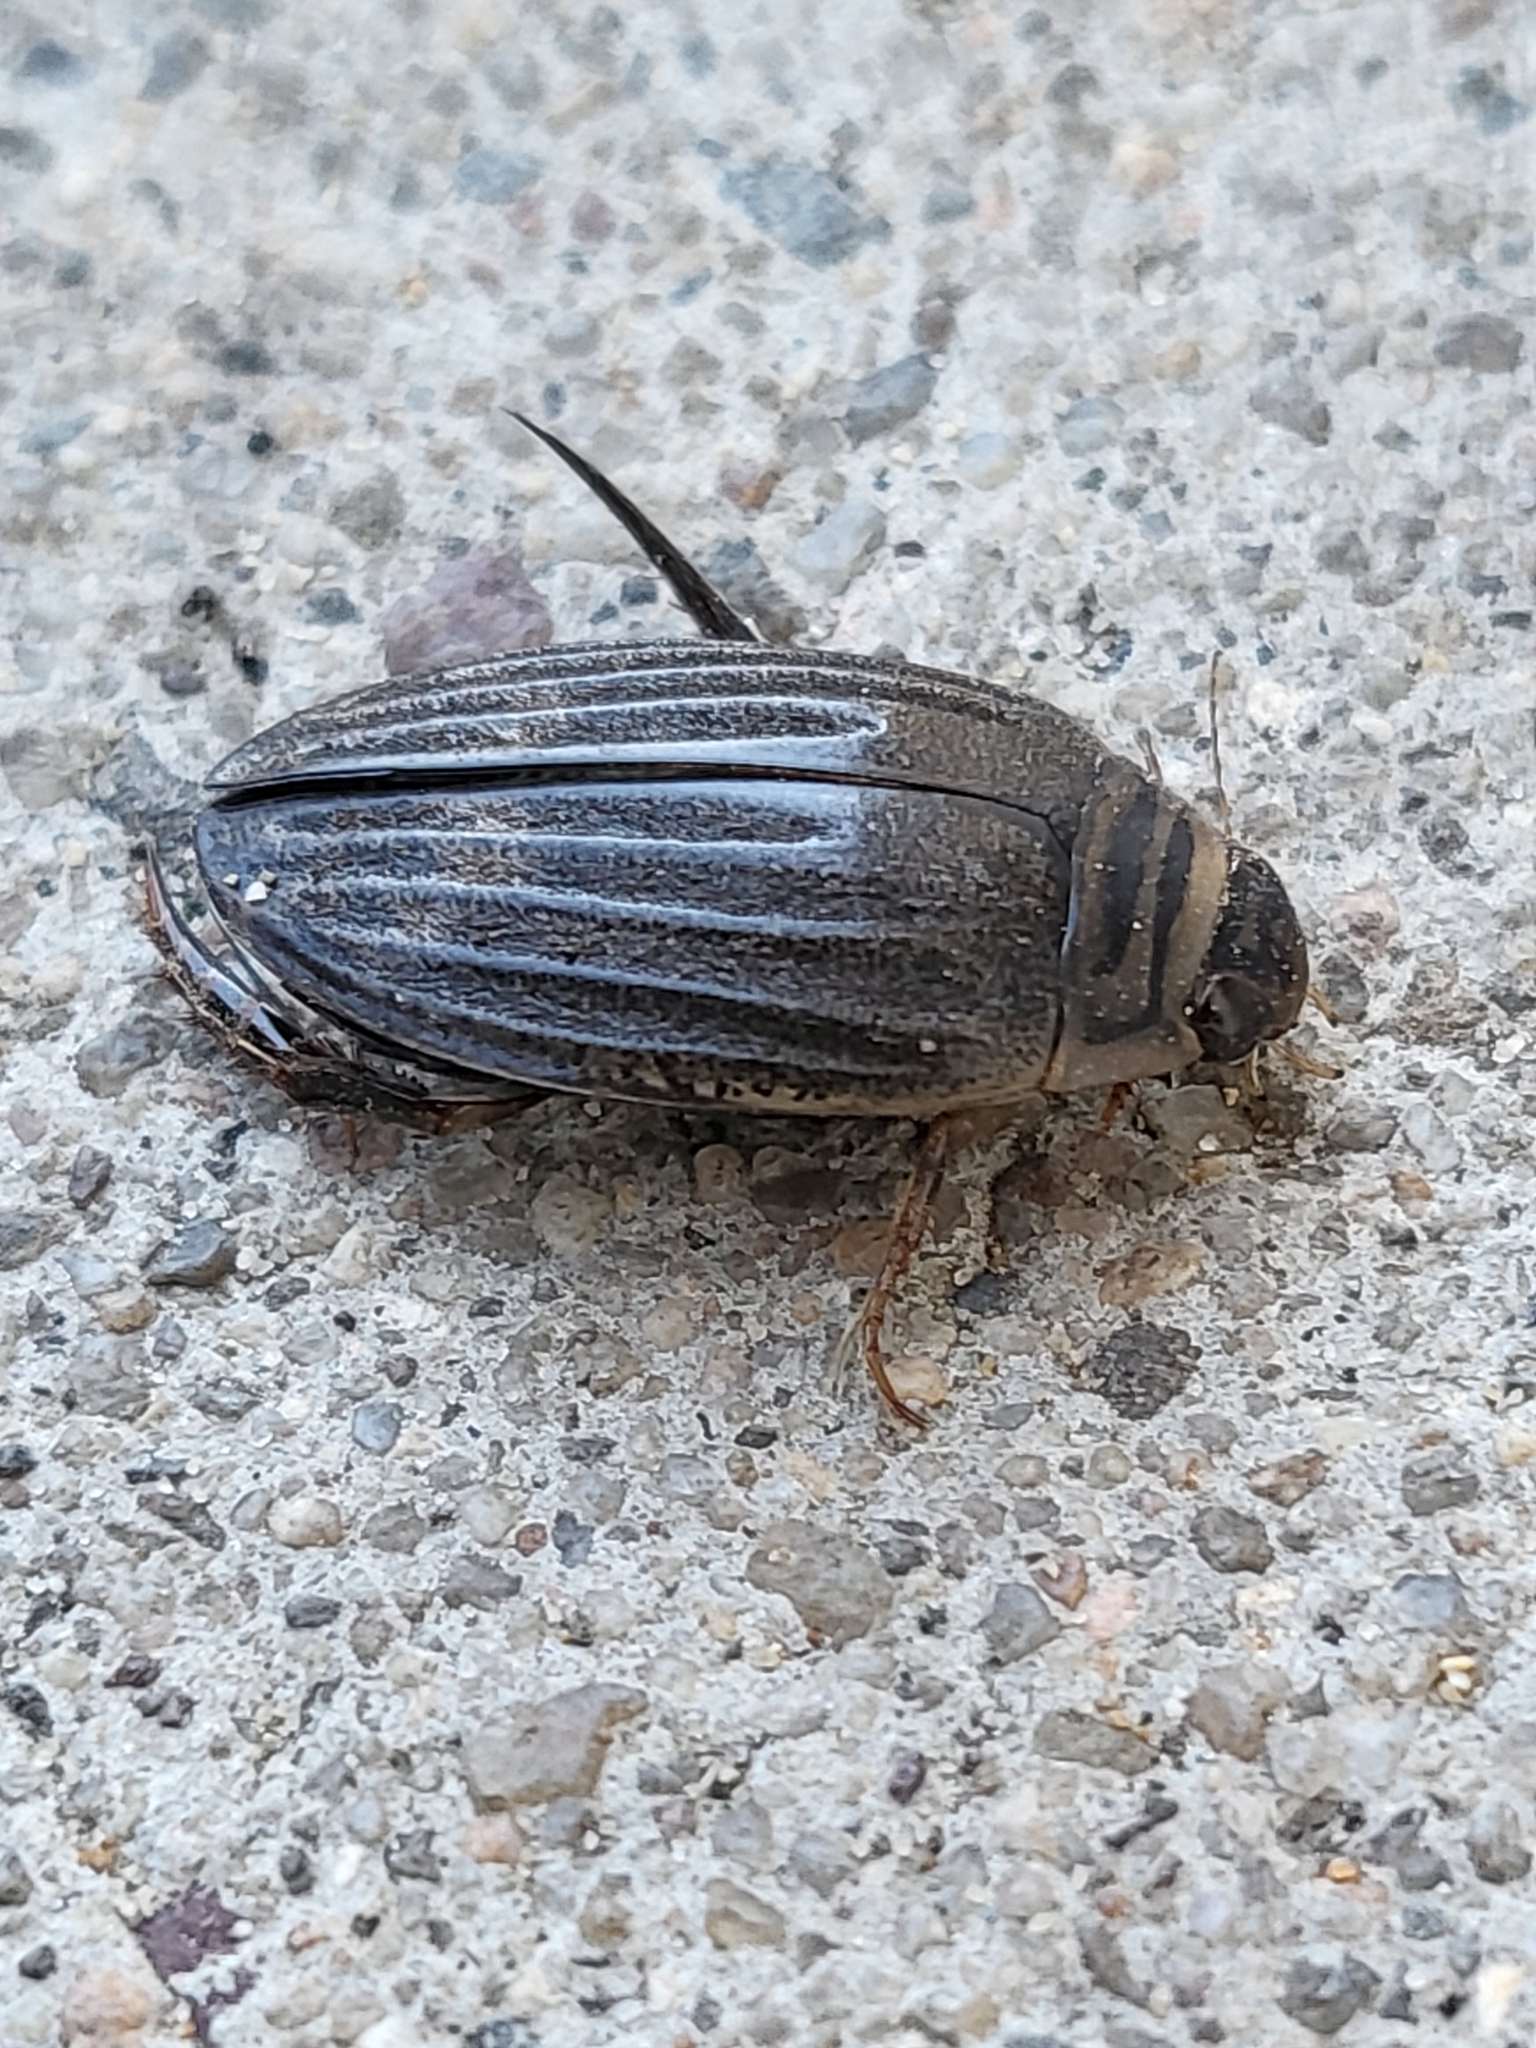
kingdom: Animalia
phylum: Arthropoda
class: Insecta
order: Coleoptera
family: Dytiscidae
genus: Acilius
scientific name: Acilius abbreviatus
